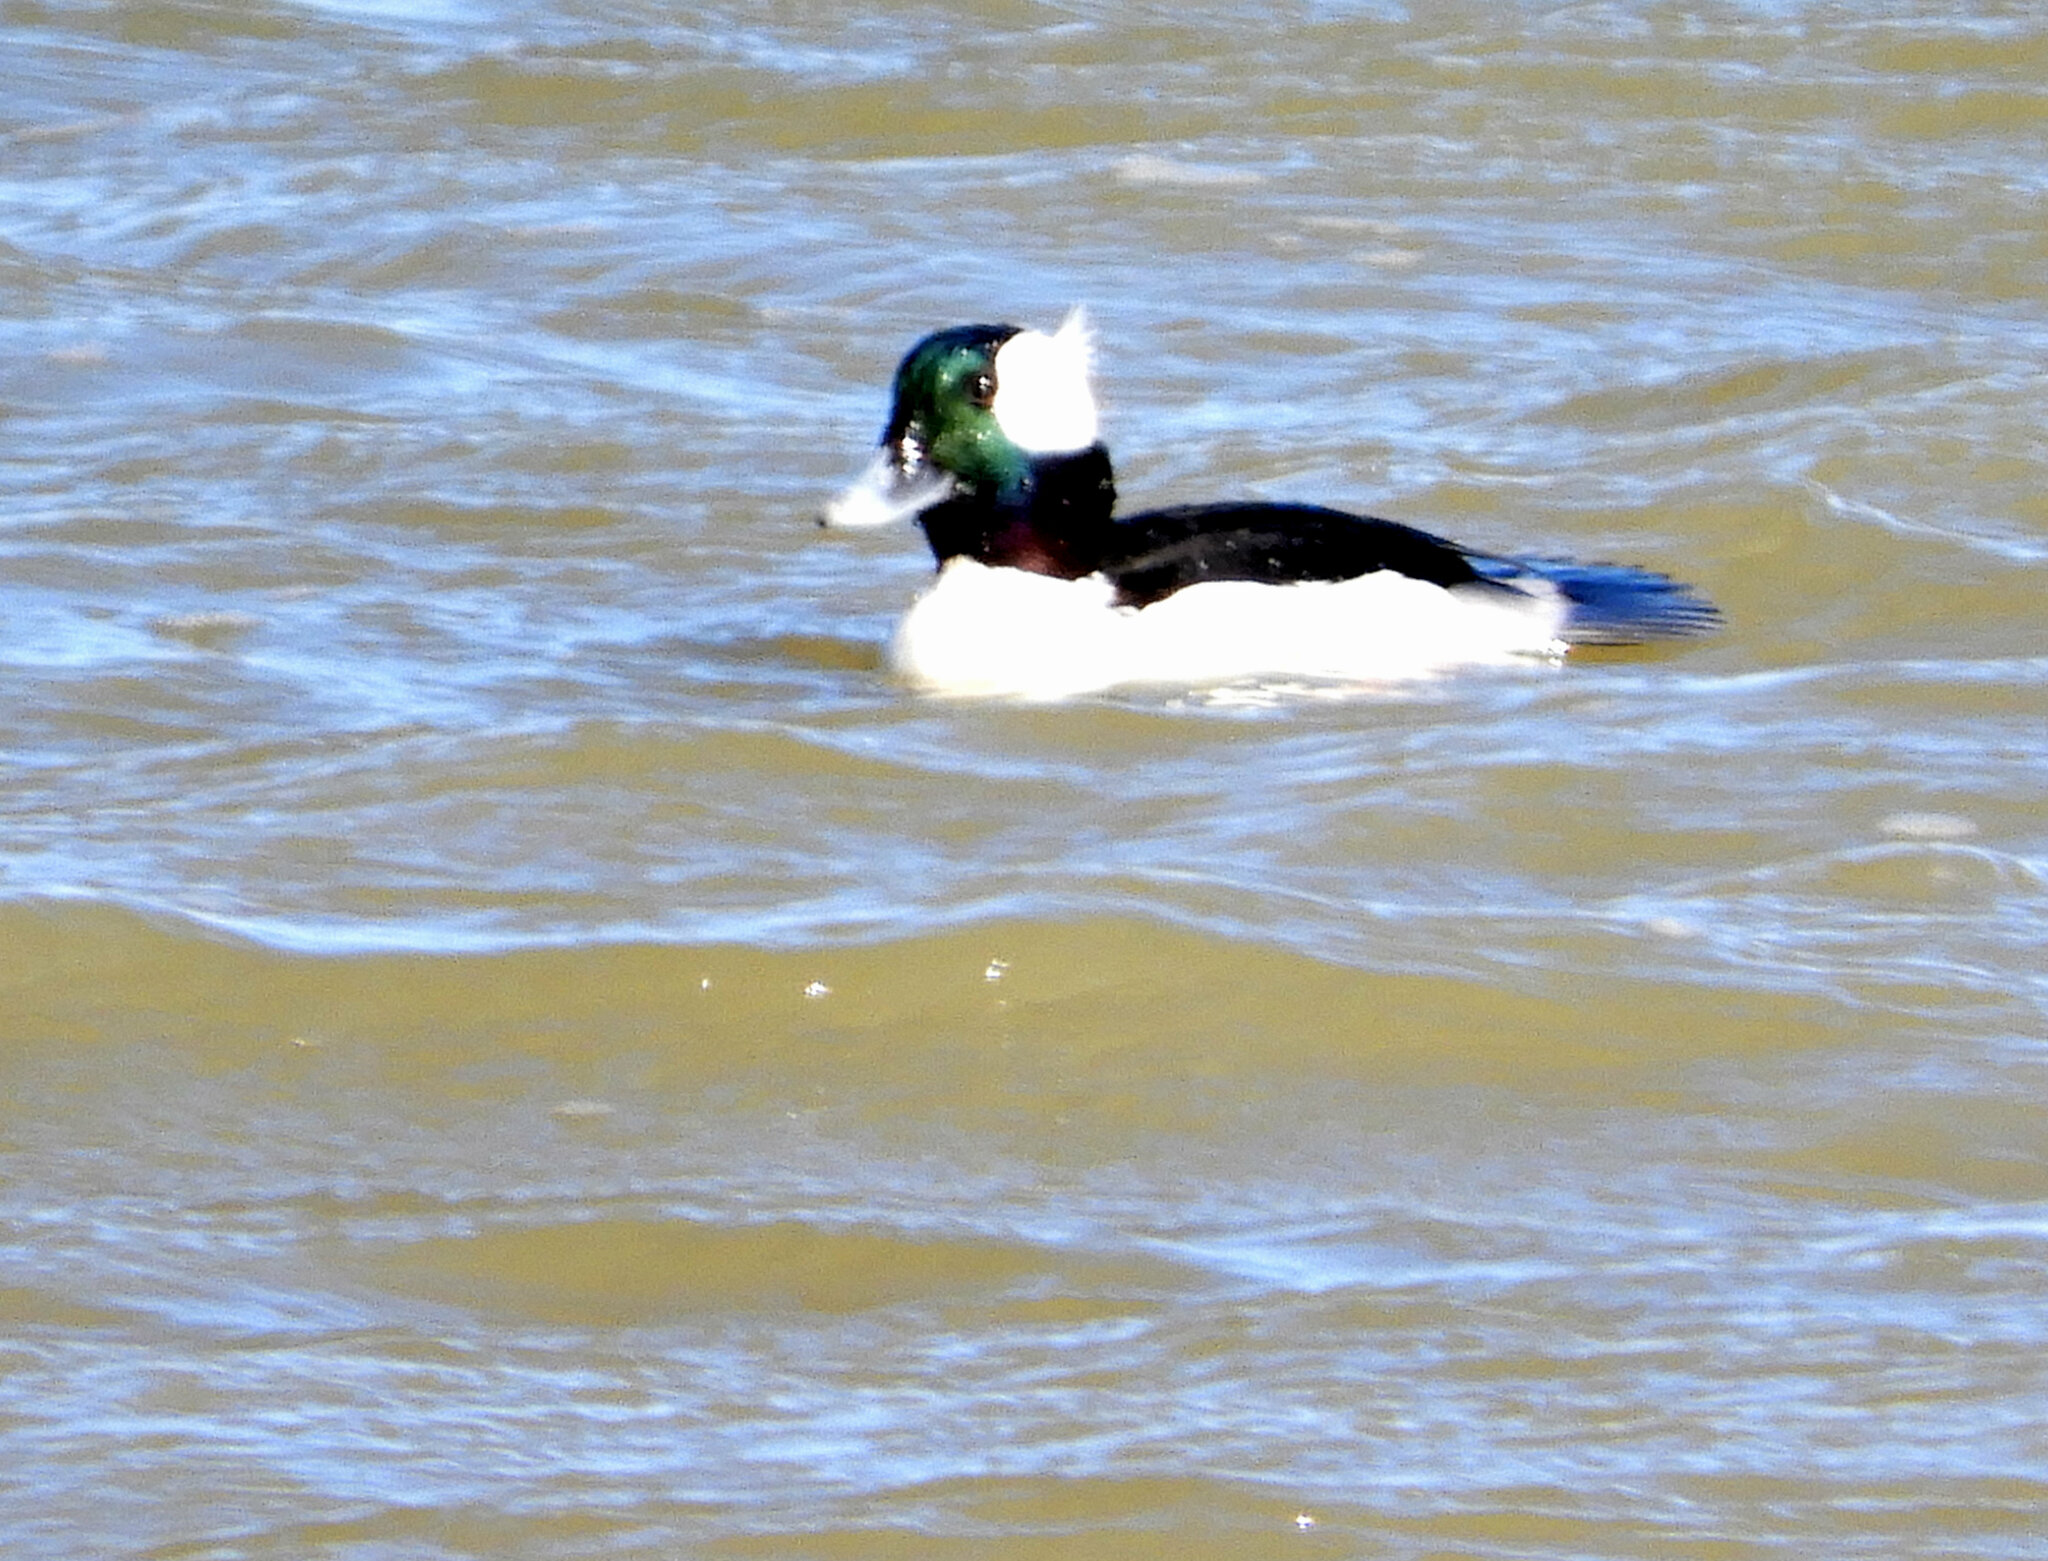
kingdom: Animalia
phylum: Chordata
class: Aves
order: Anseriformes
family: Anatidae
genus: Bucephala
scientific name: Bucephala albeola
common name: Bufflehead
